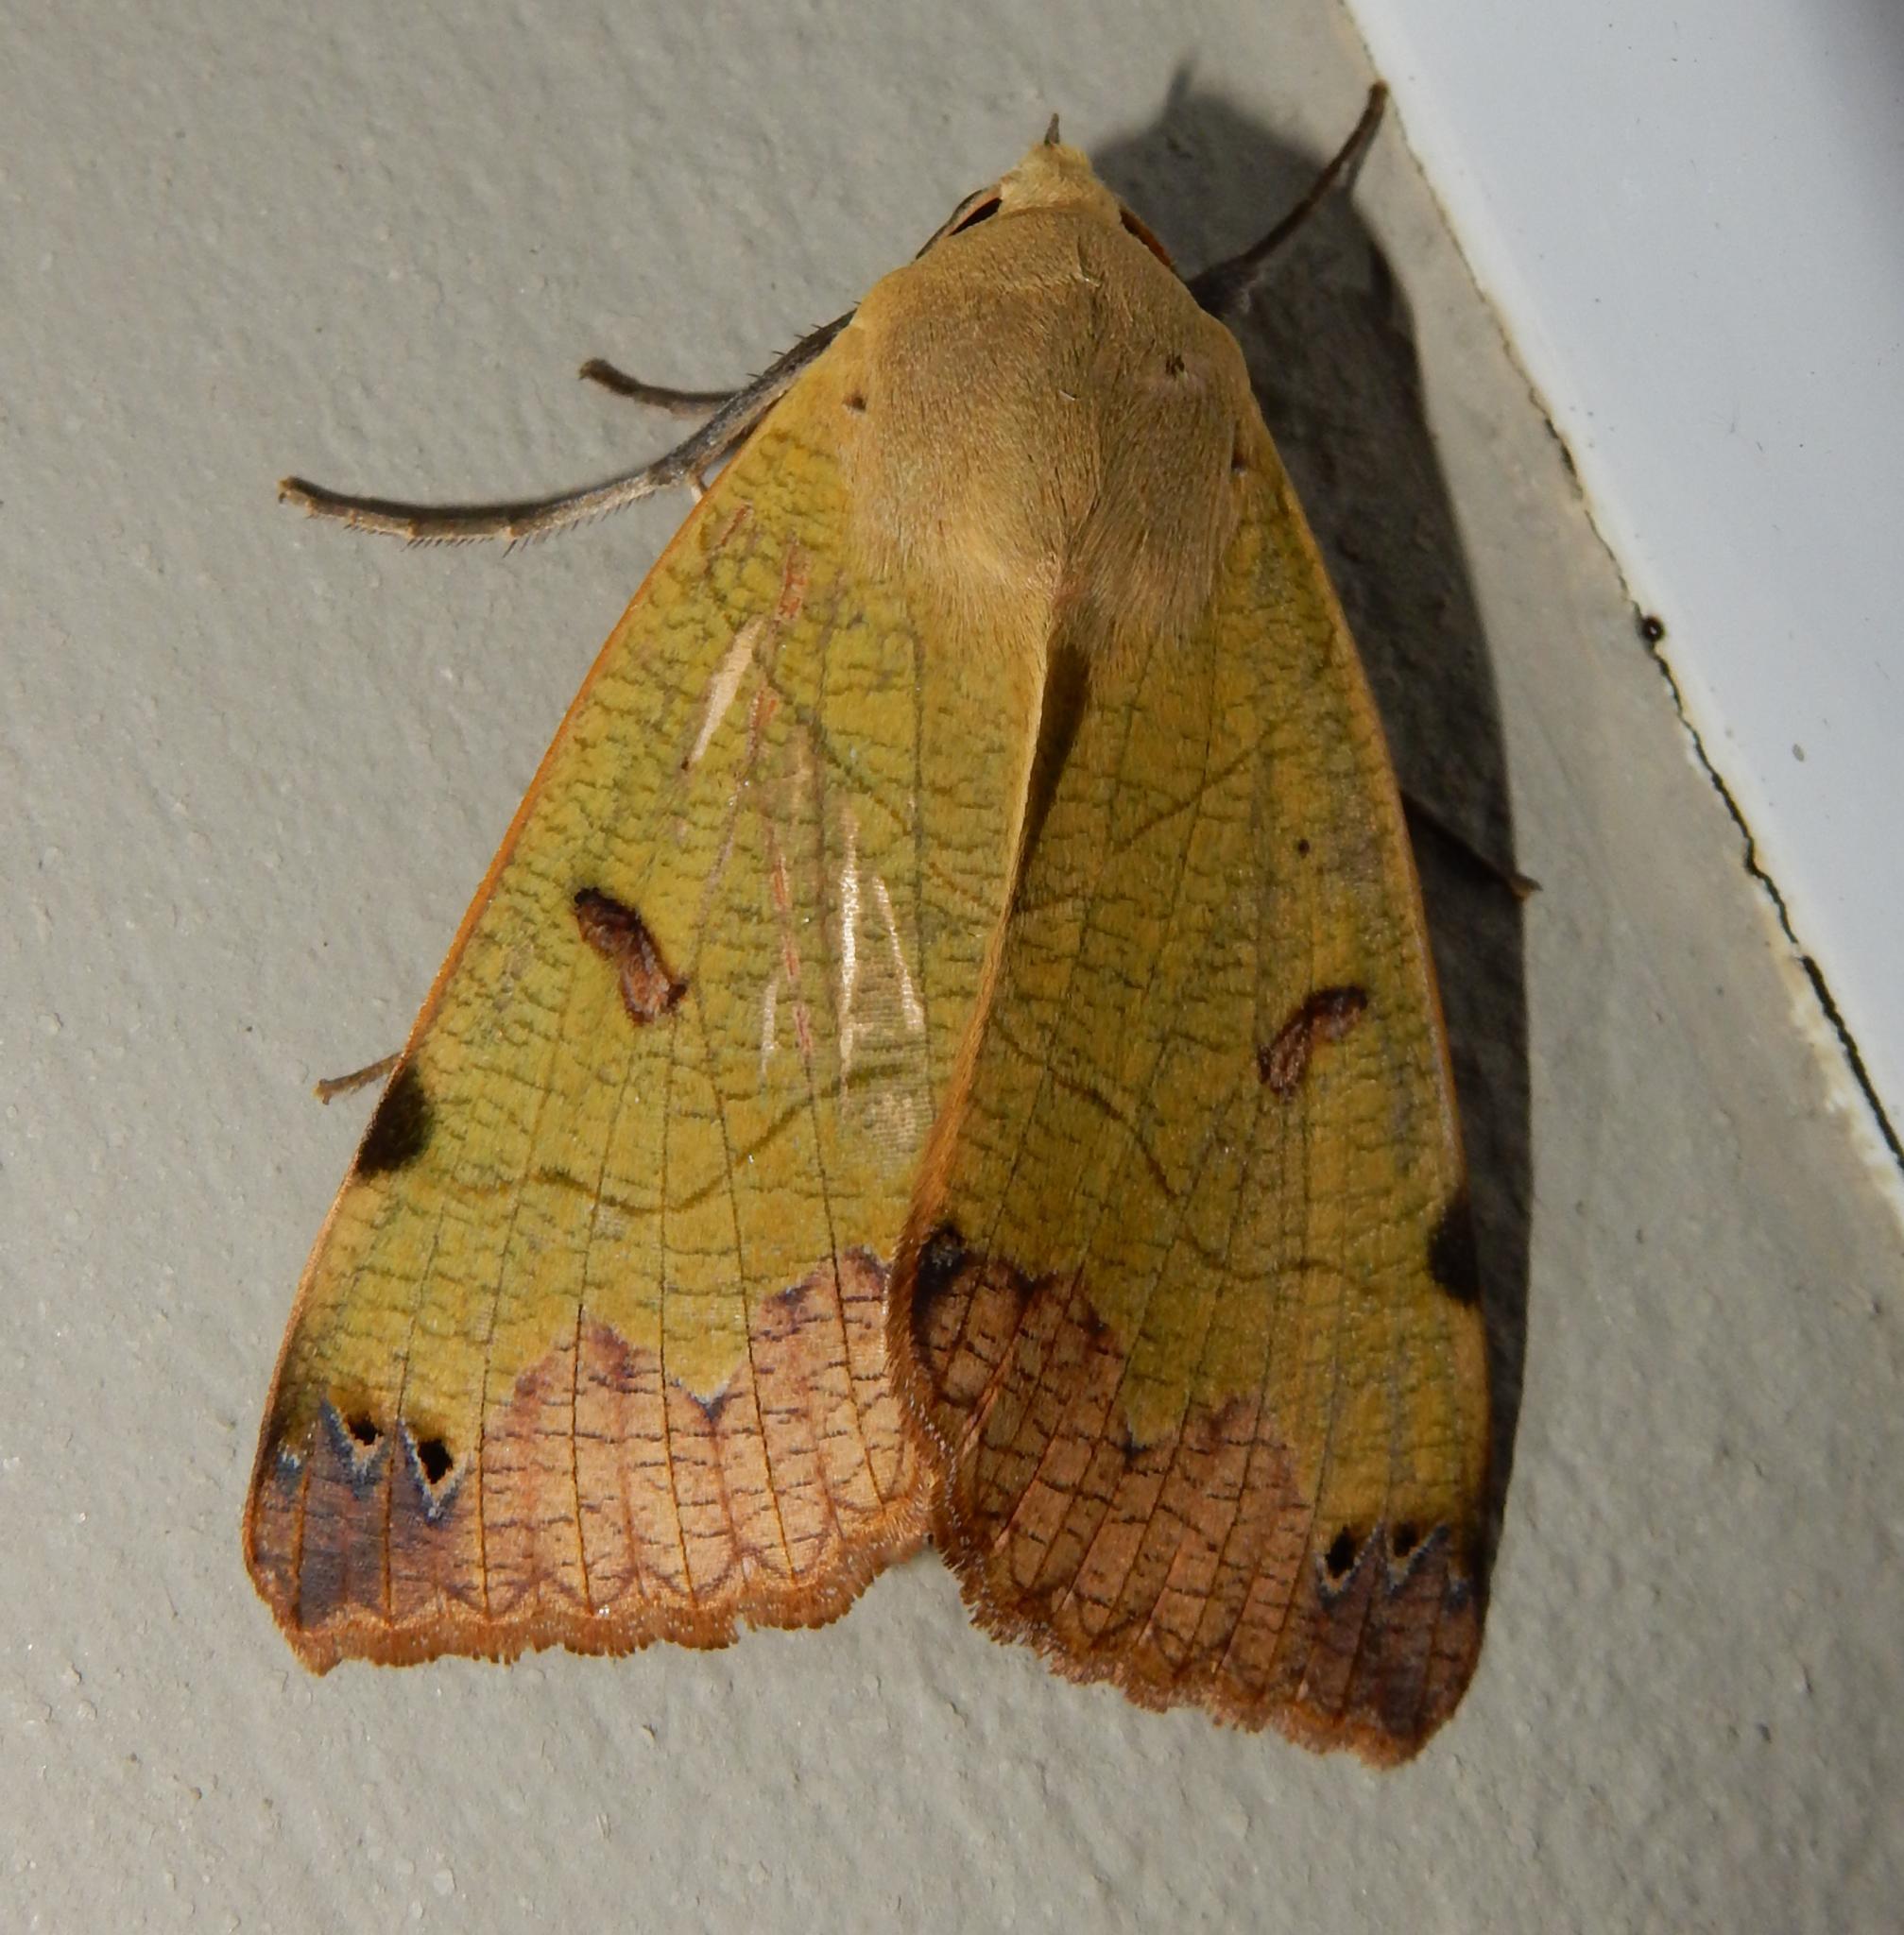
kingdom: Animalia
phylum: Arthropoda
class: Insecta
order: Lepidoptera
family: Erebidae
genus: Ophiusa
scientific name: Ophiusa tirhaca
